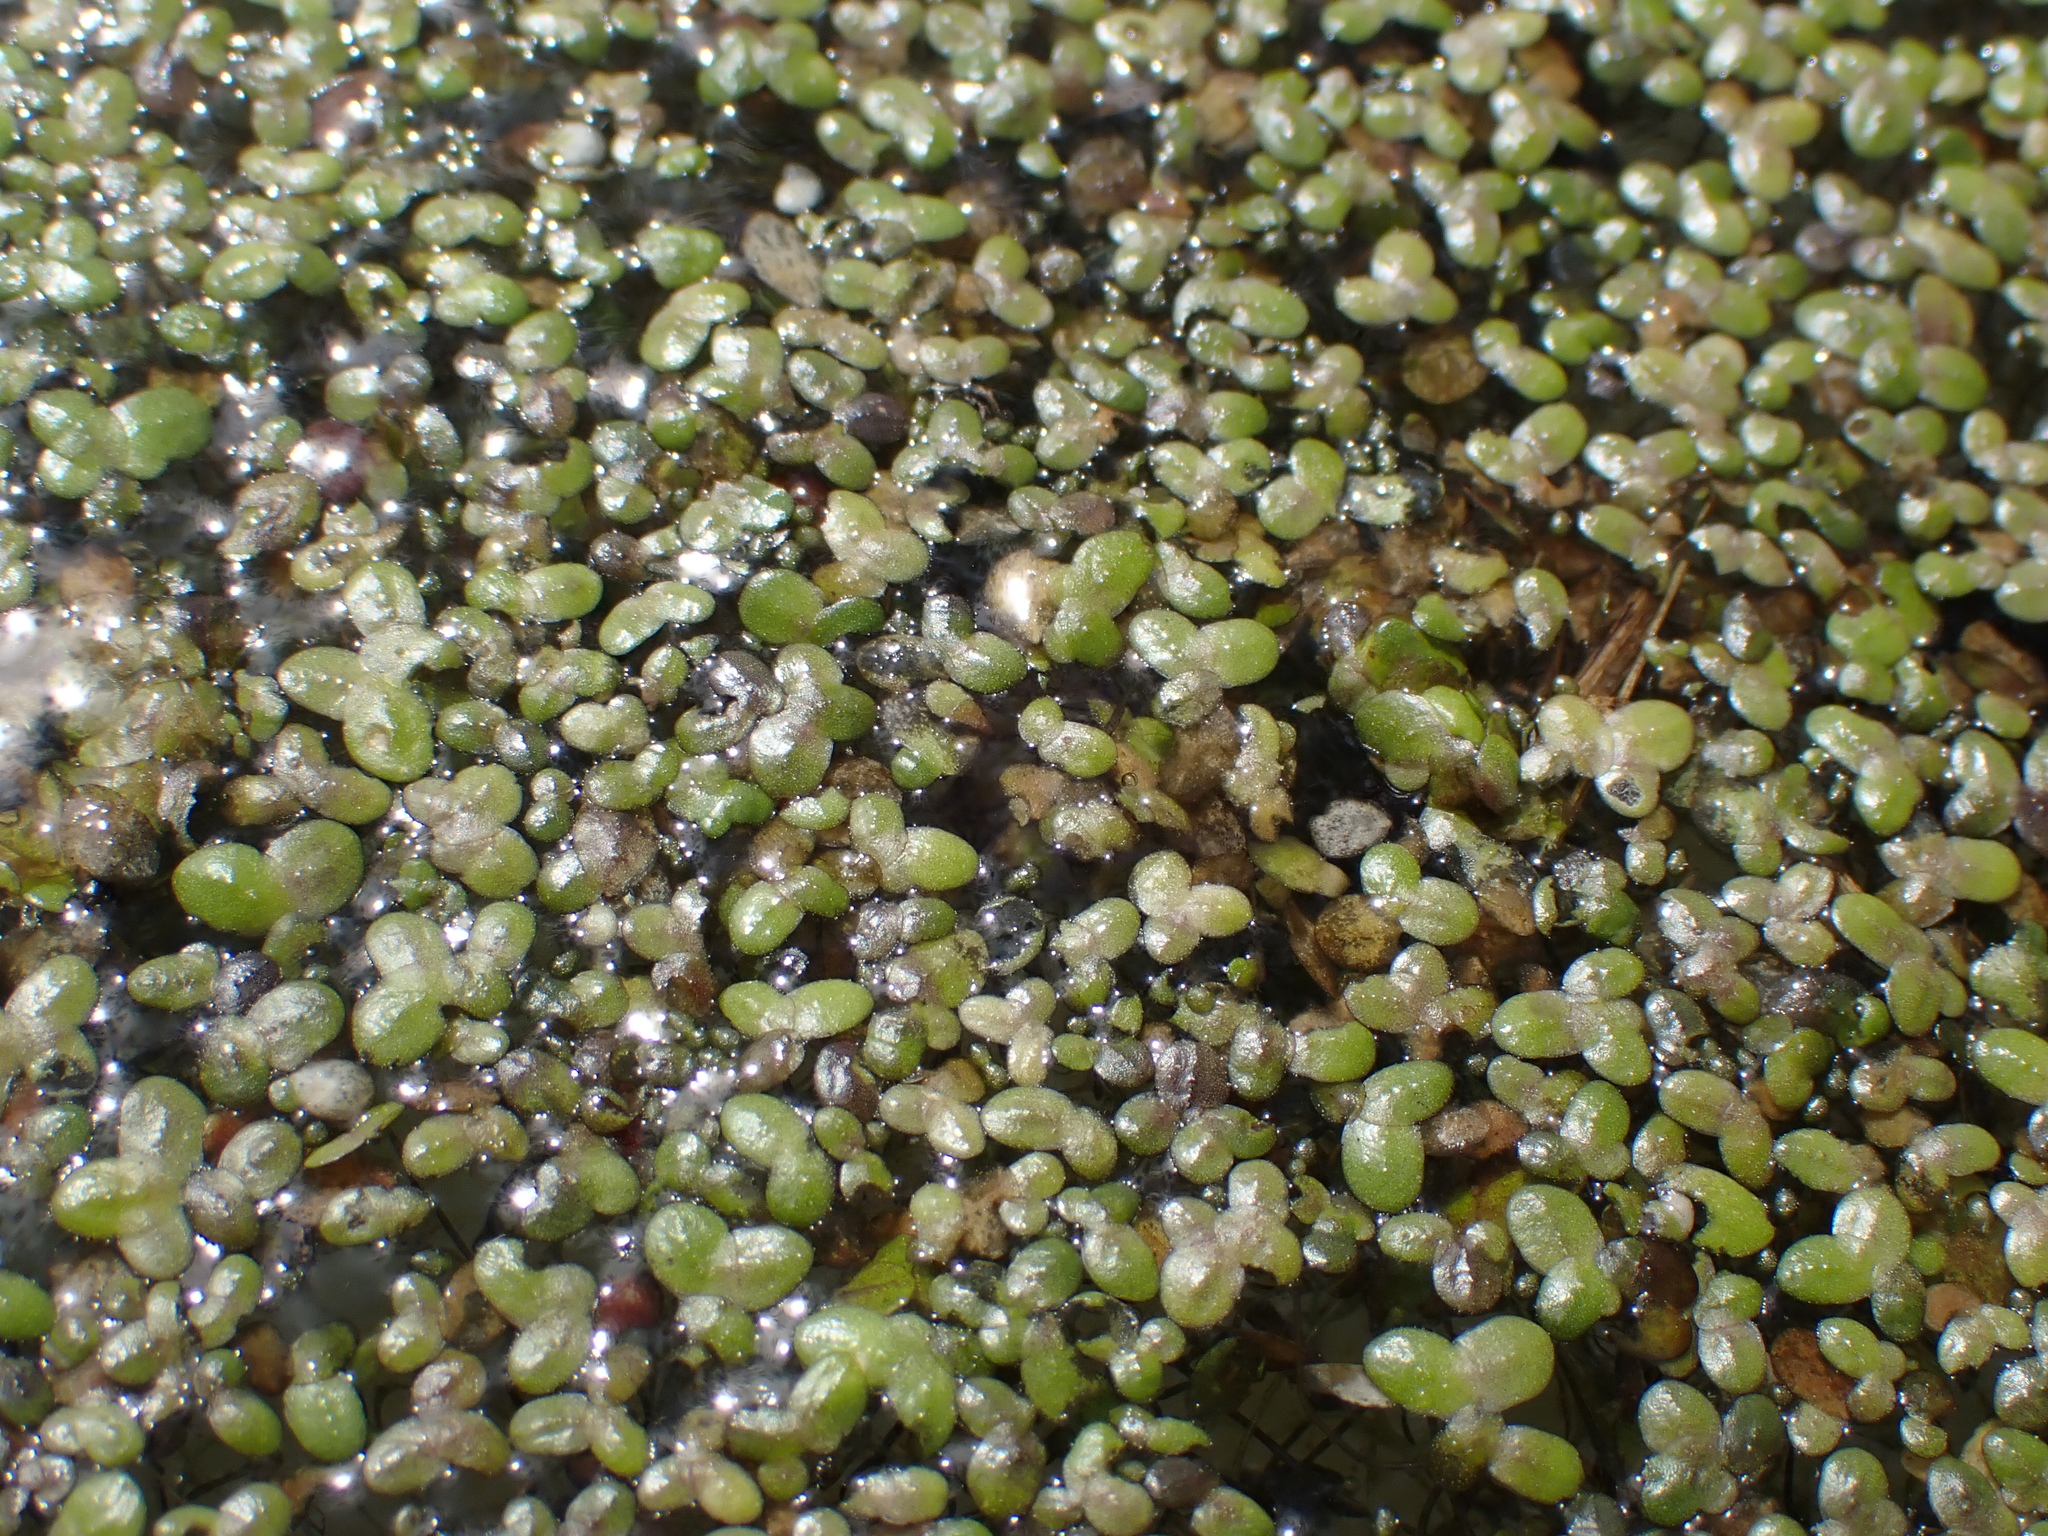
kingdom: Plantae
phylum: Tracheophyta
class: Liliopsida
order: Alismatales
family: Araceae
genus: Lemna
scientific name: Lemna minor
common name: Common duckweed
